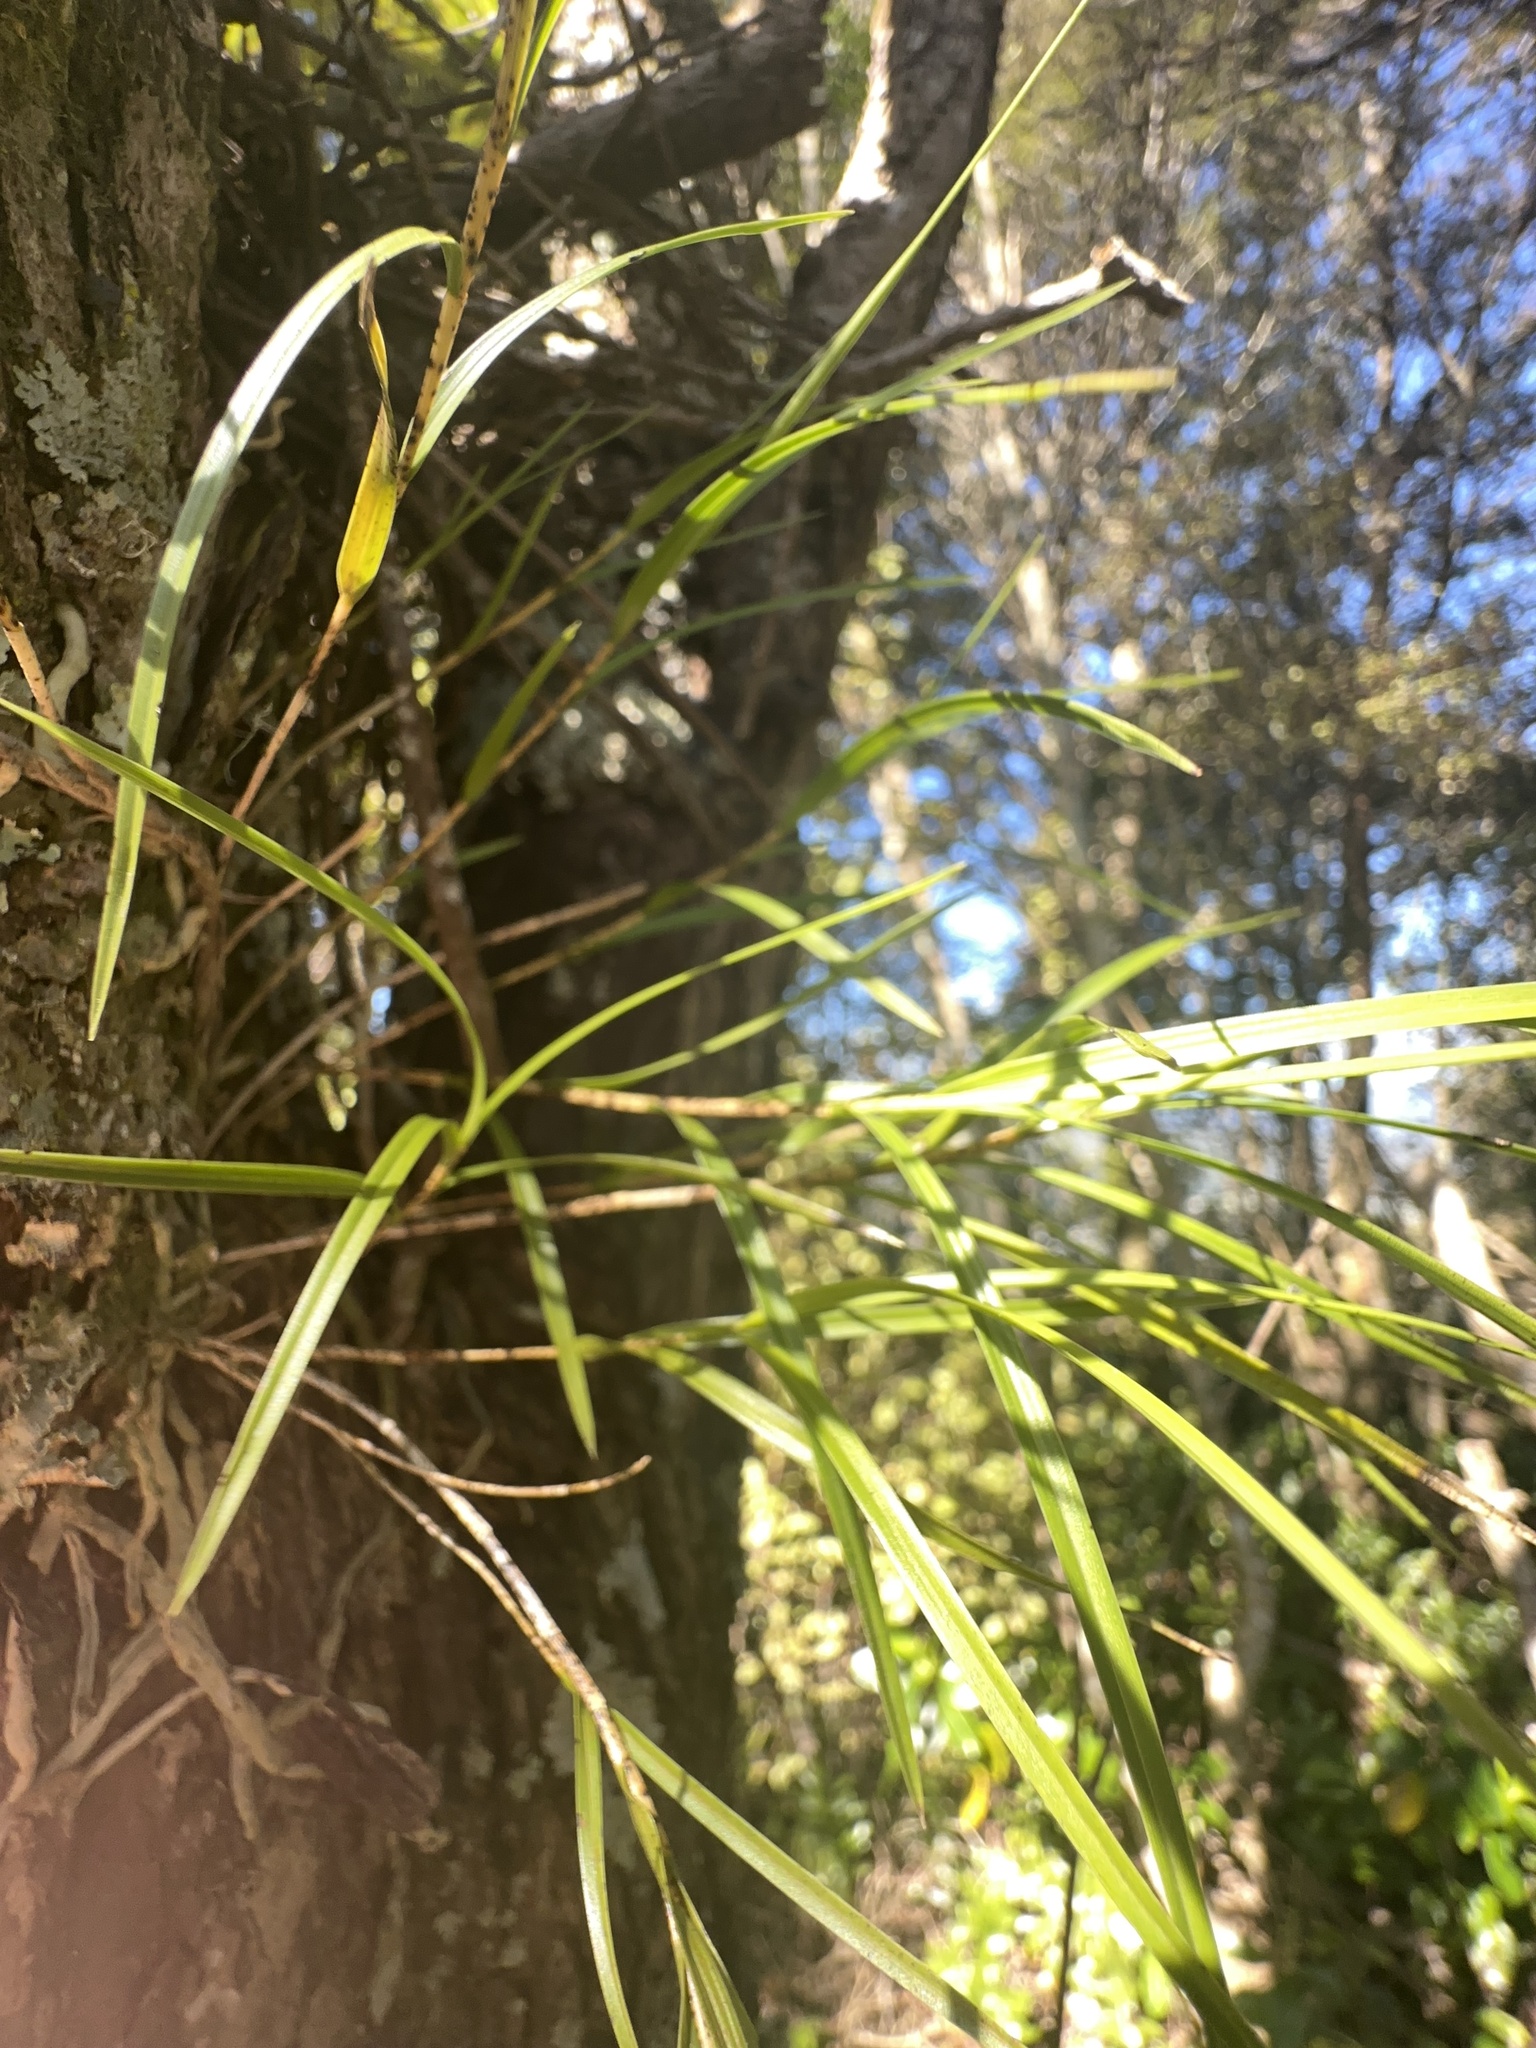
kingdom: Plantae
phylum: Tracheophyta
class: Liliopsida
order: Asparagales
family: Orchidaceae
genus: Earina
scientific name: Earina mucronata
